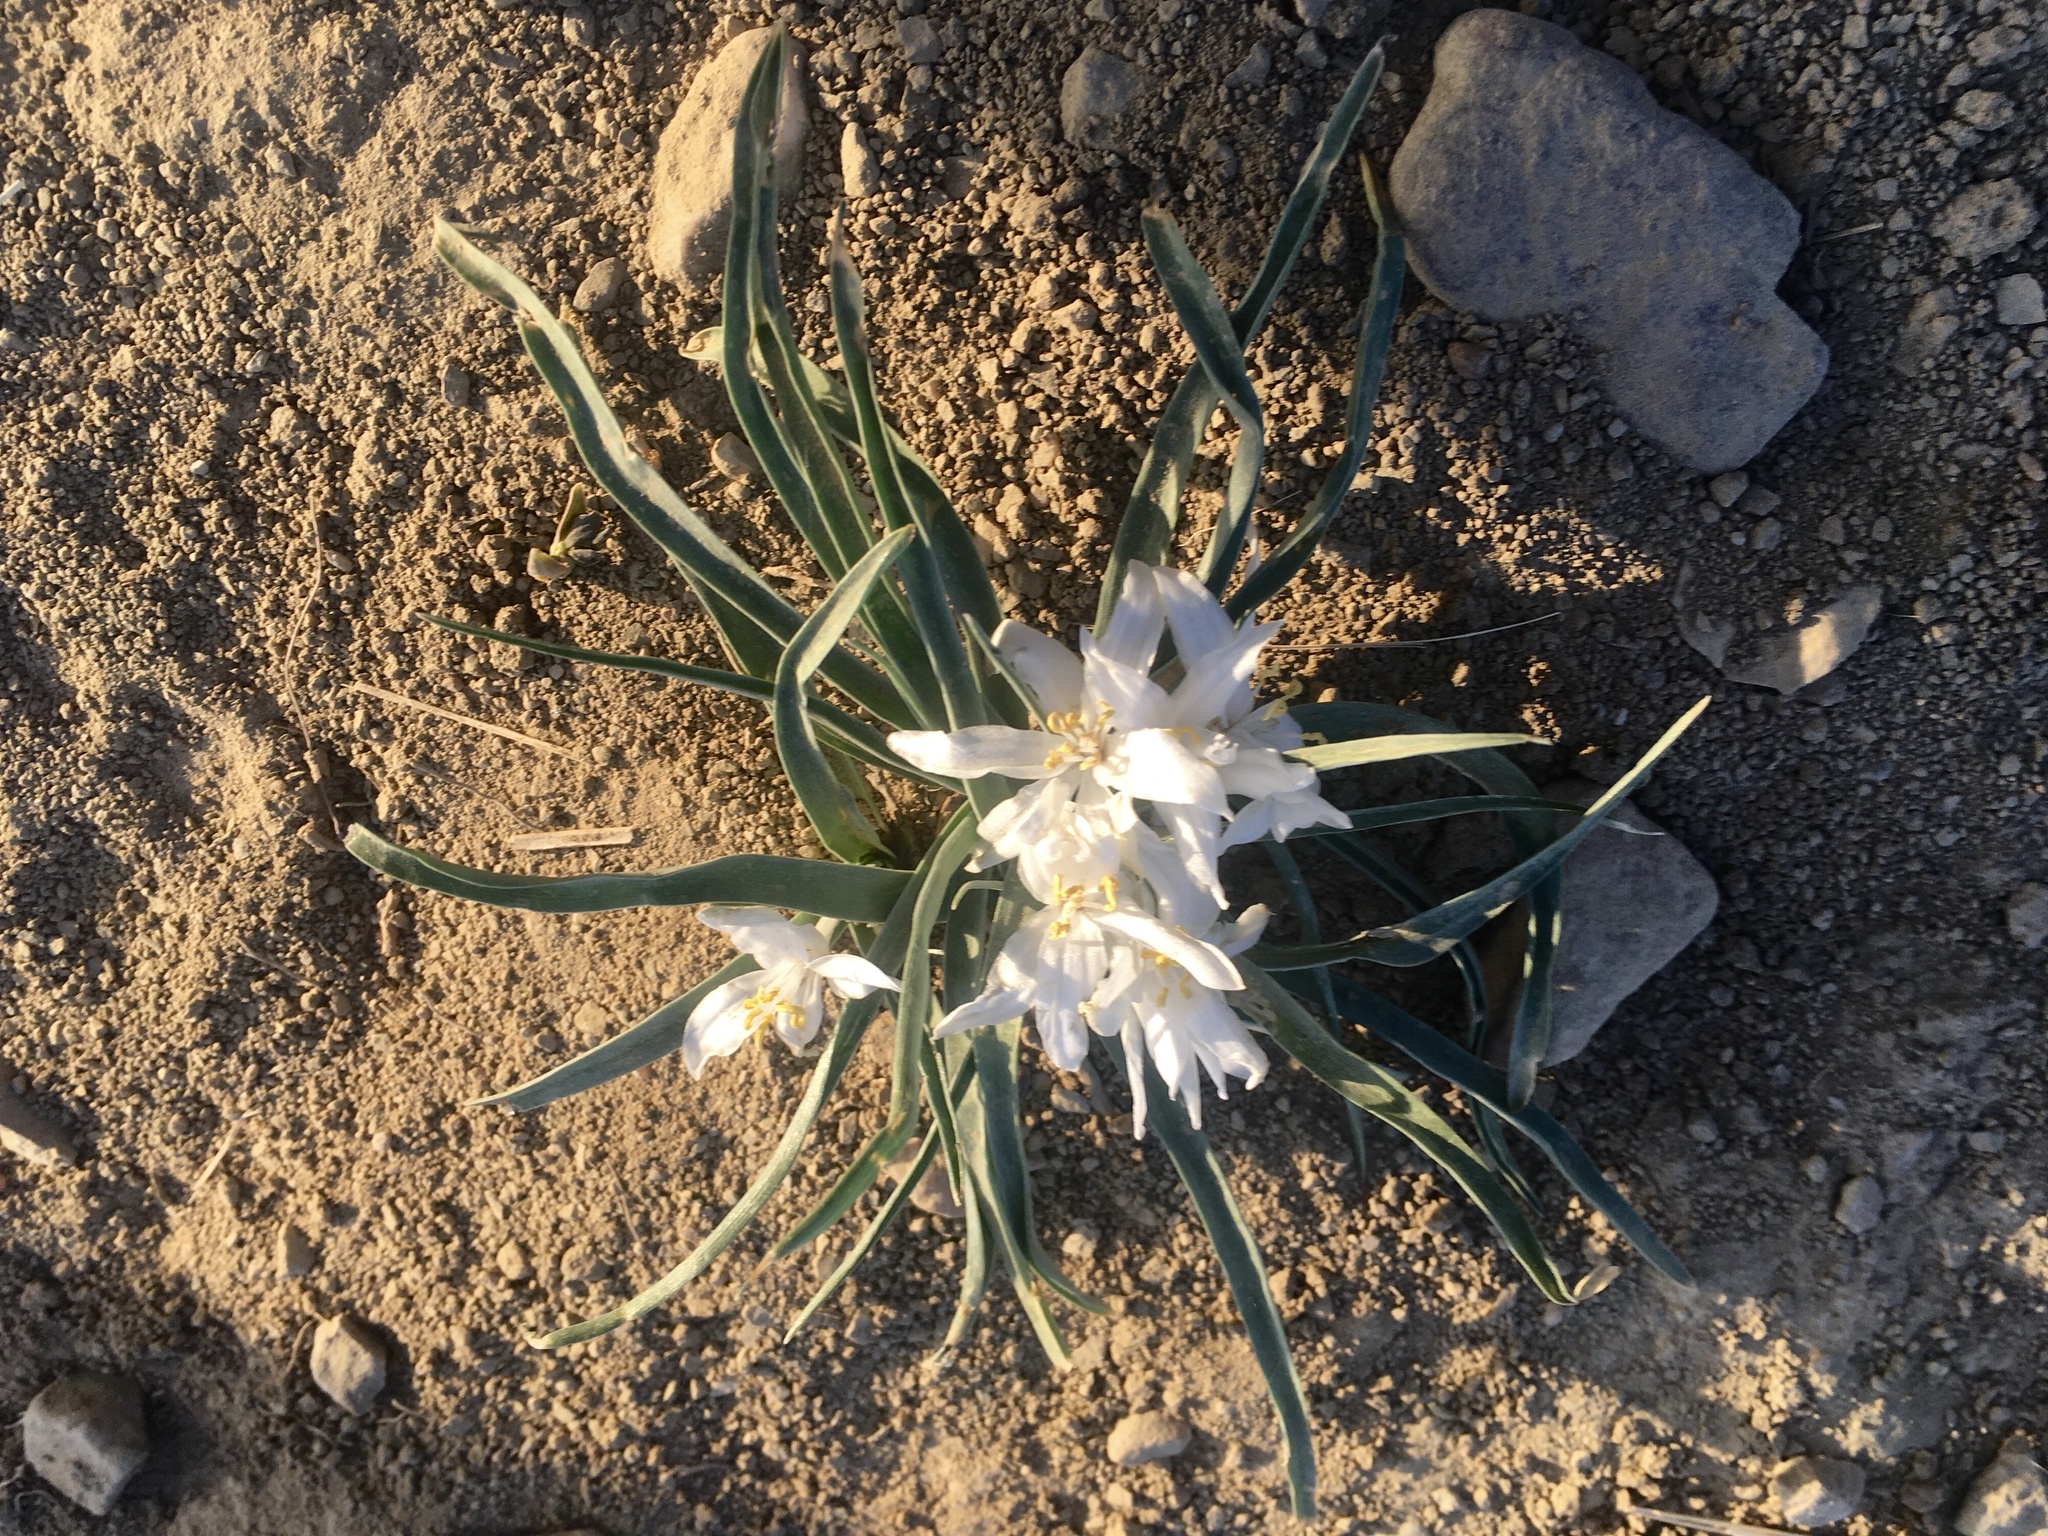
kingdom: Plantae
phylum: Tracheophyta
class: Liliopsida
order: Asparagales
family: Asparagaceae
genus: Leucocrinum
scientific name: Leucocrinum montanum
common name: Mountain-lily
